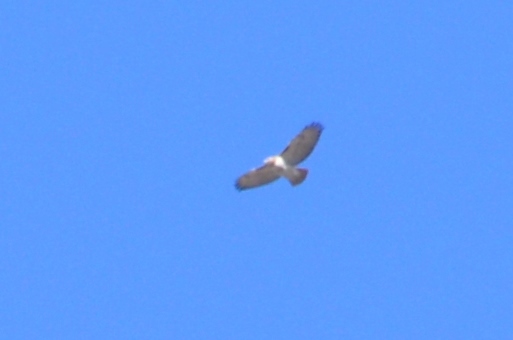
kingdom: Animalia
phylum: Chordata
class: Aves
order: Accipitriformes
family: Accipitridae
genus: Buteo
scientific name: Buteo jamaicensis
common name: Red-tailed hawk
